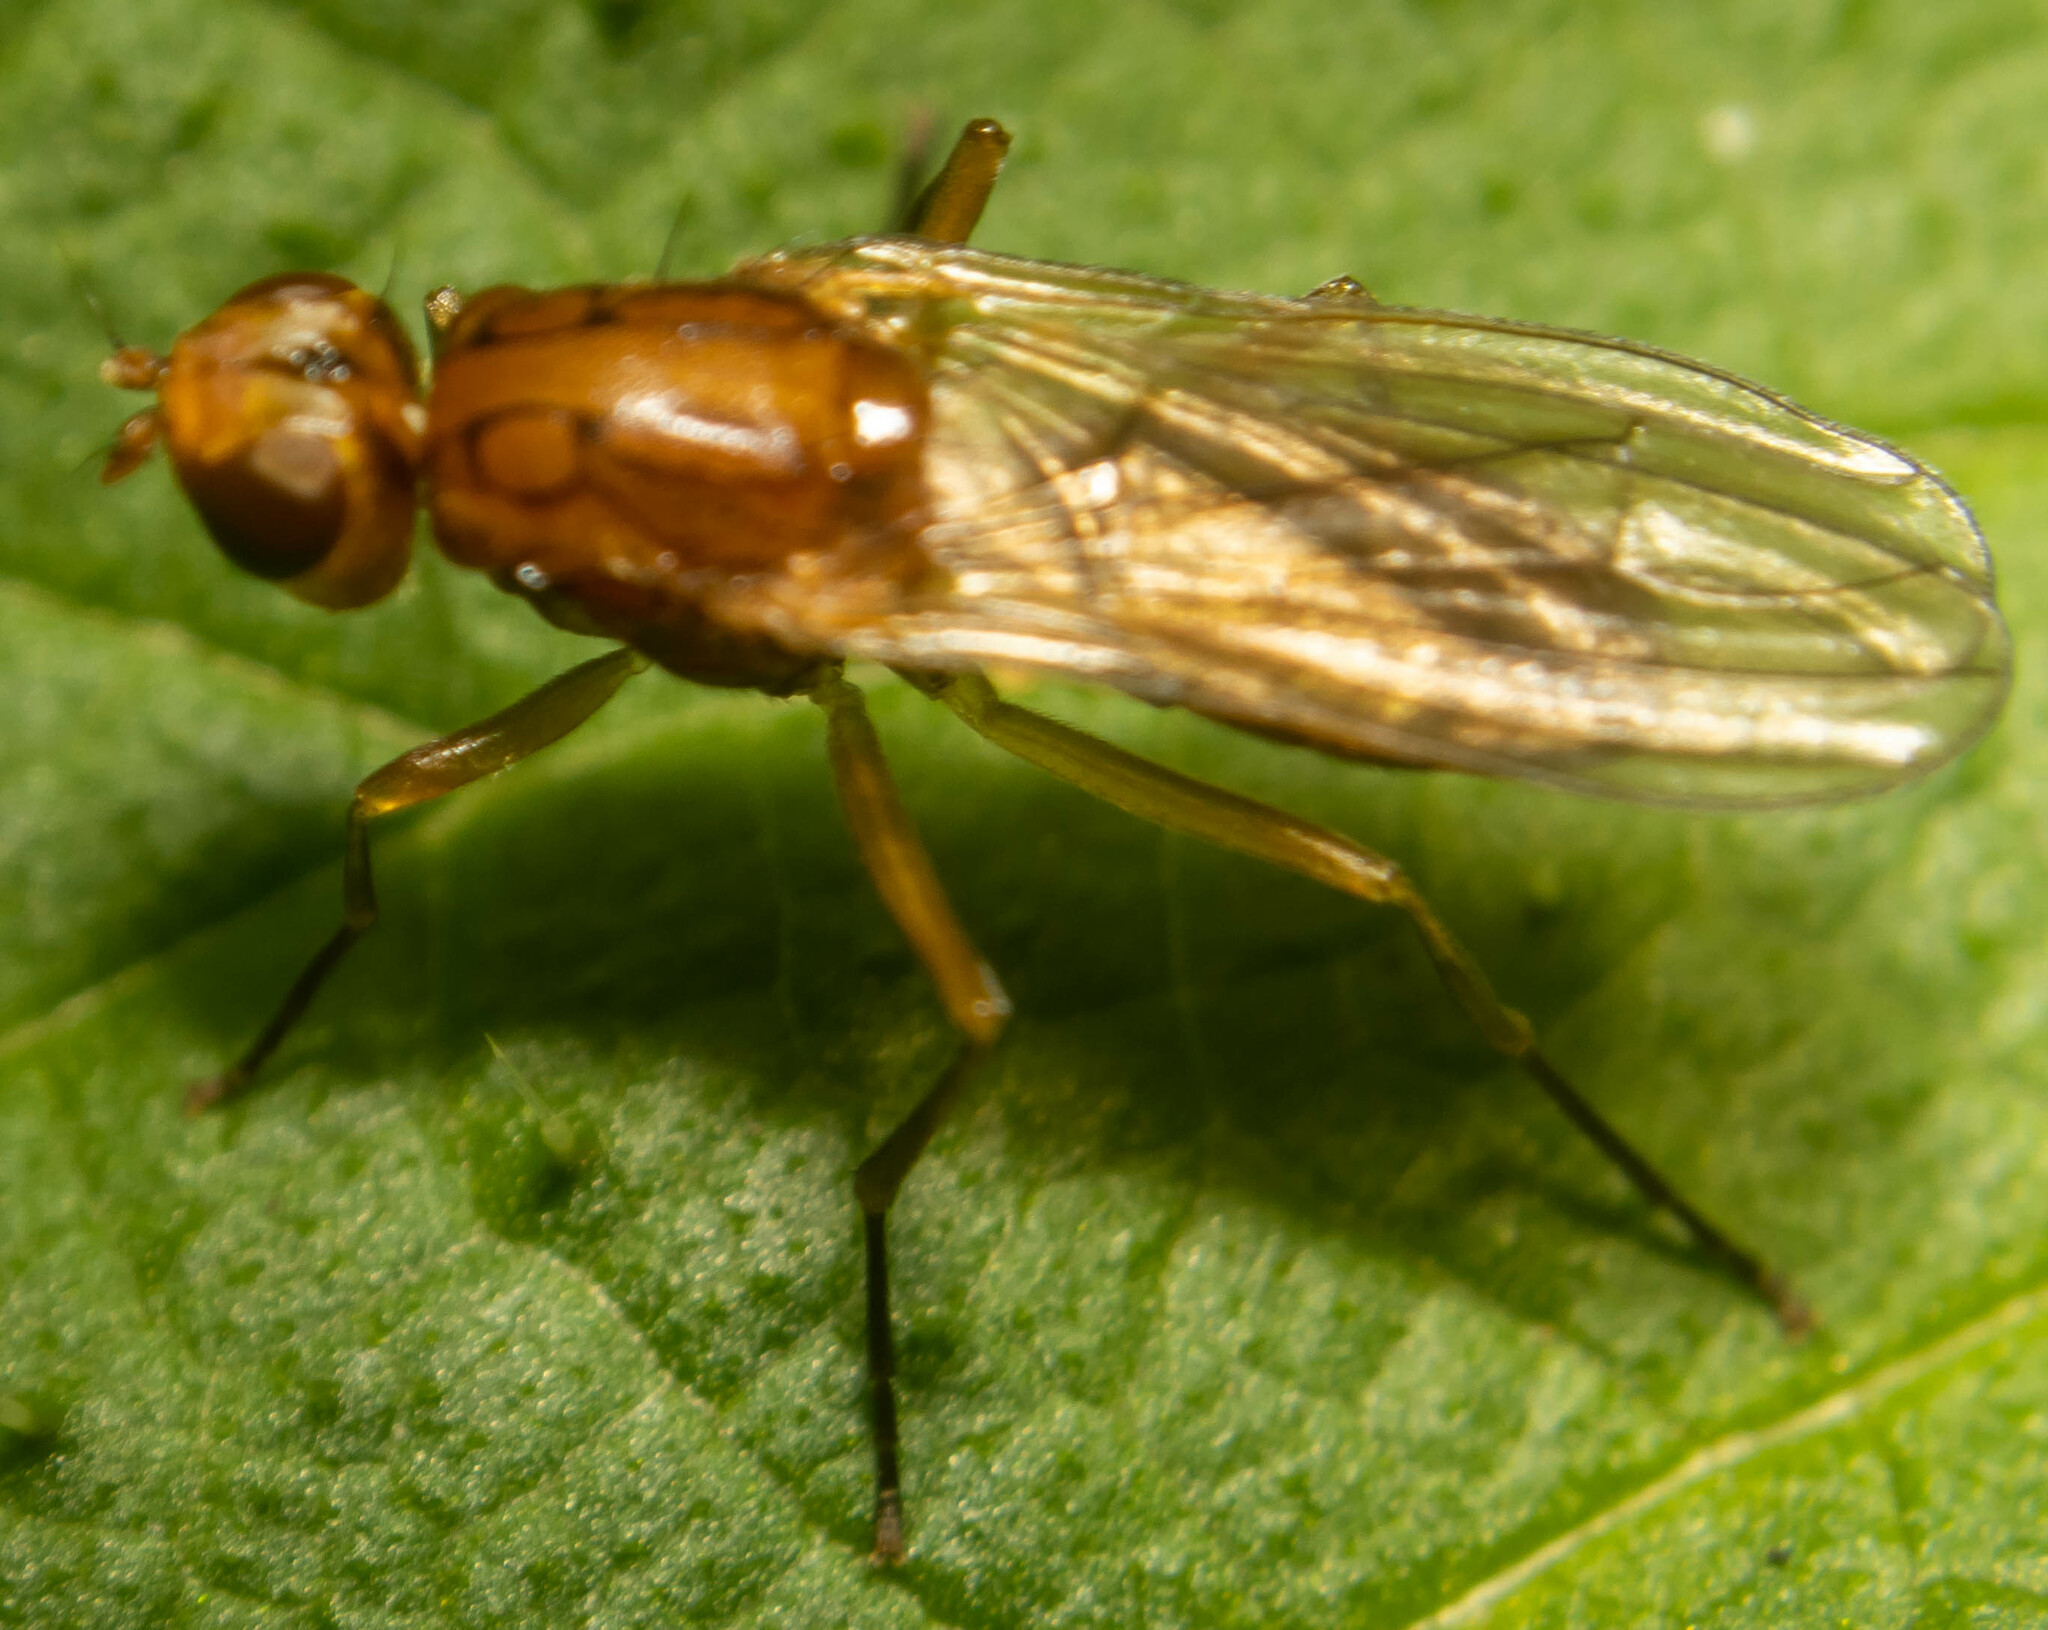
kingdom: Animalia
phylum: Arthropoda
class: Insecta
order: Diptera
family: Psilidae
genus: Psila
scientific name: Psila fimetaria
